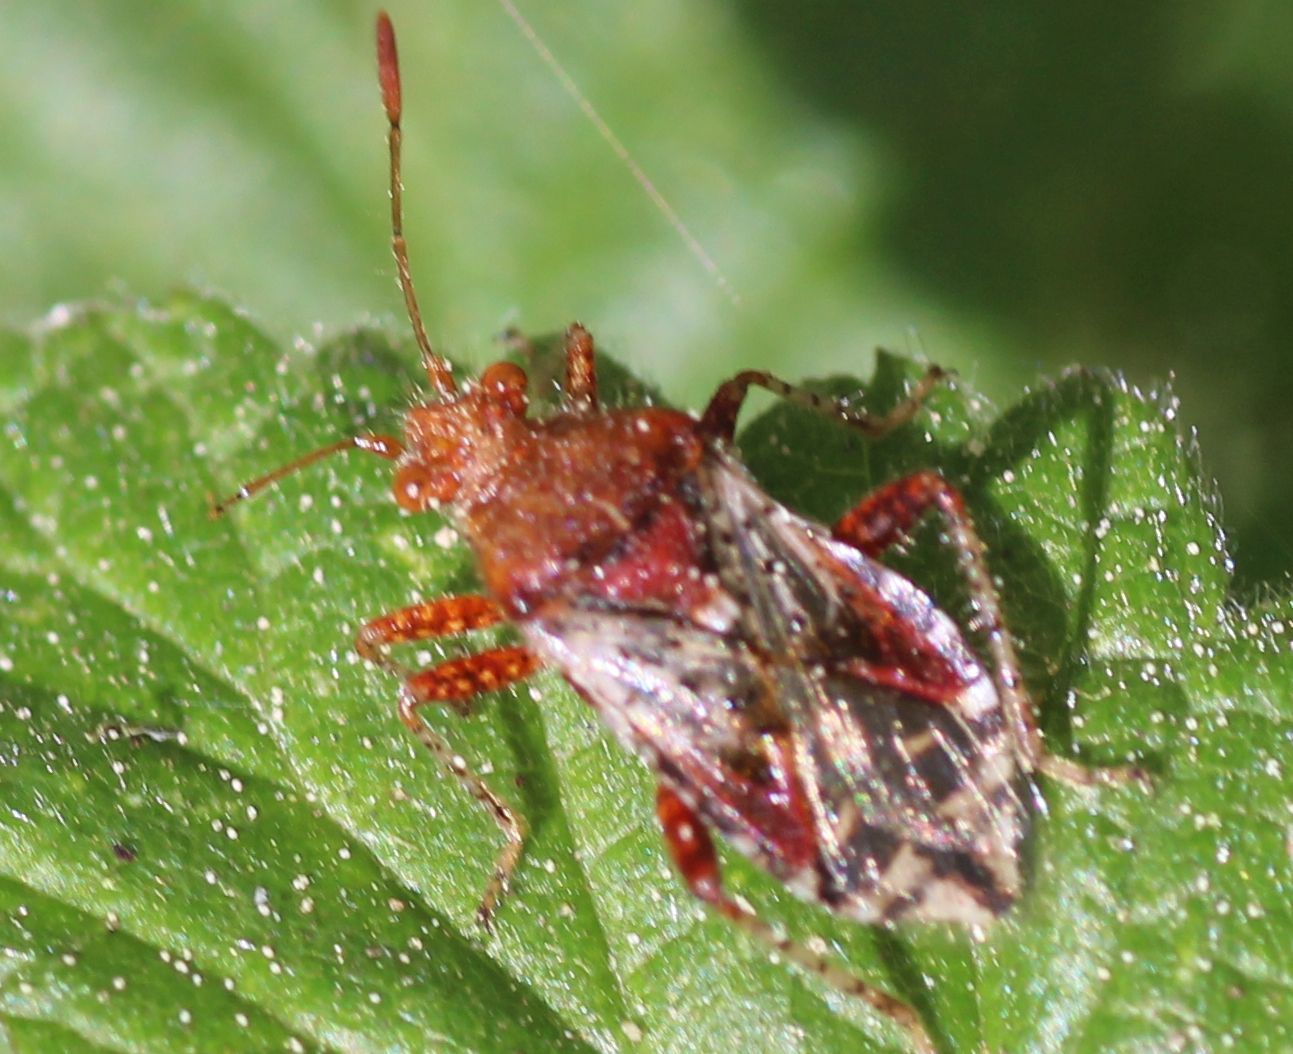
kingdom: Animalia
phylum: Arthropoda
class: Insecta
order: Hemiptera
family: Rhopalidae
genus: Rhopalus
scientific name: Rhopalus subrufus
